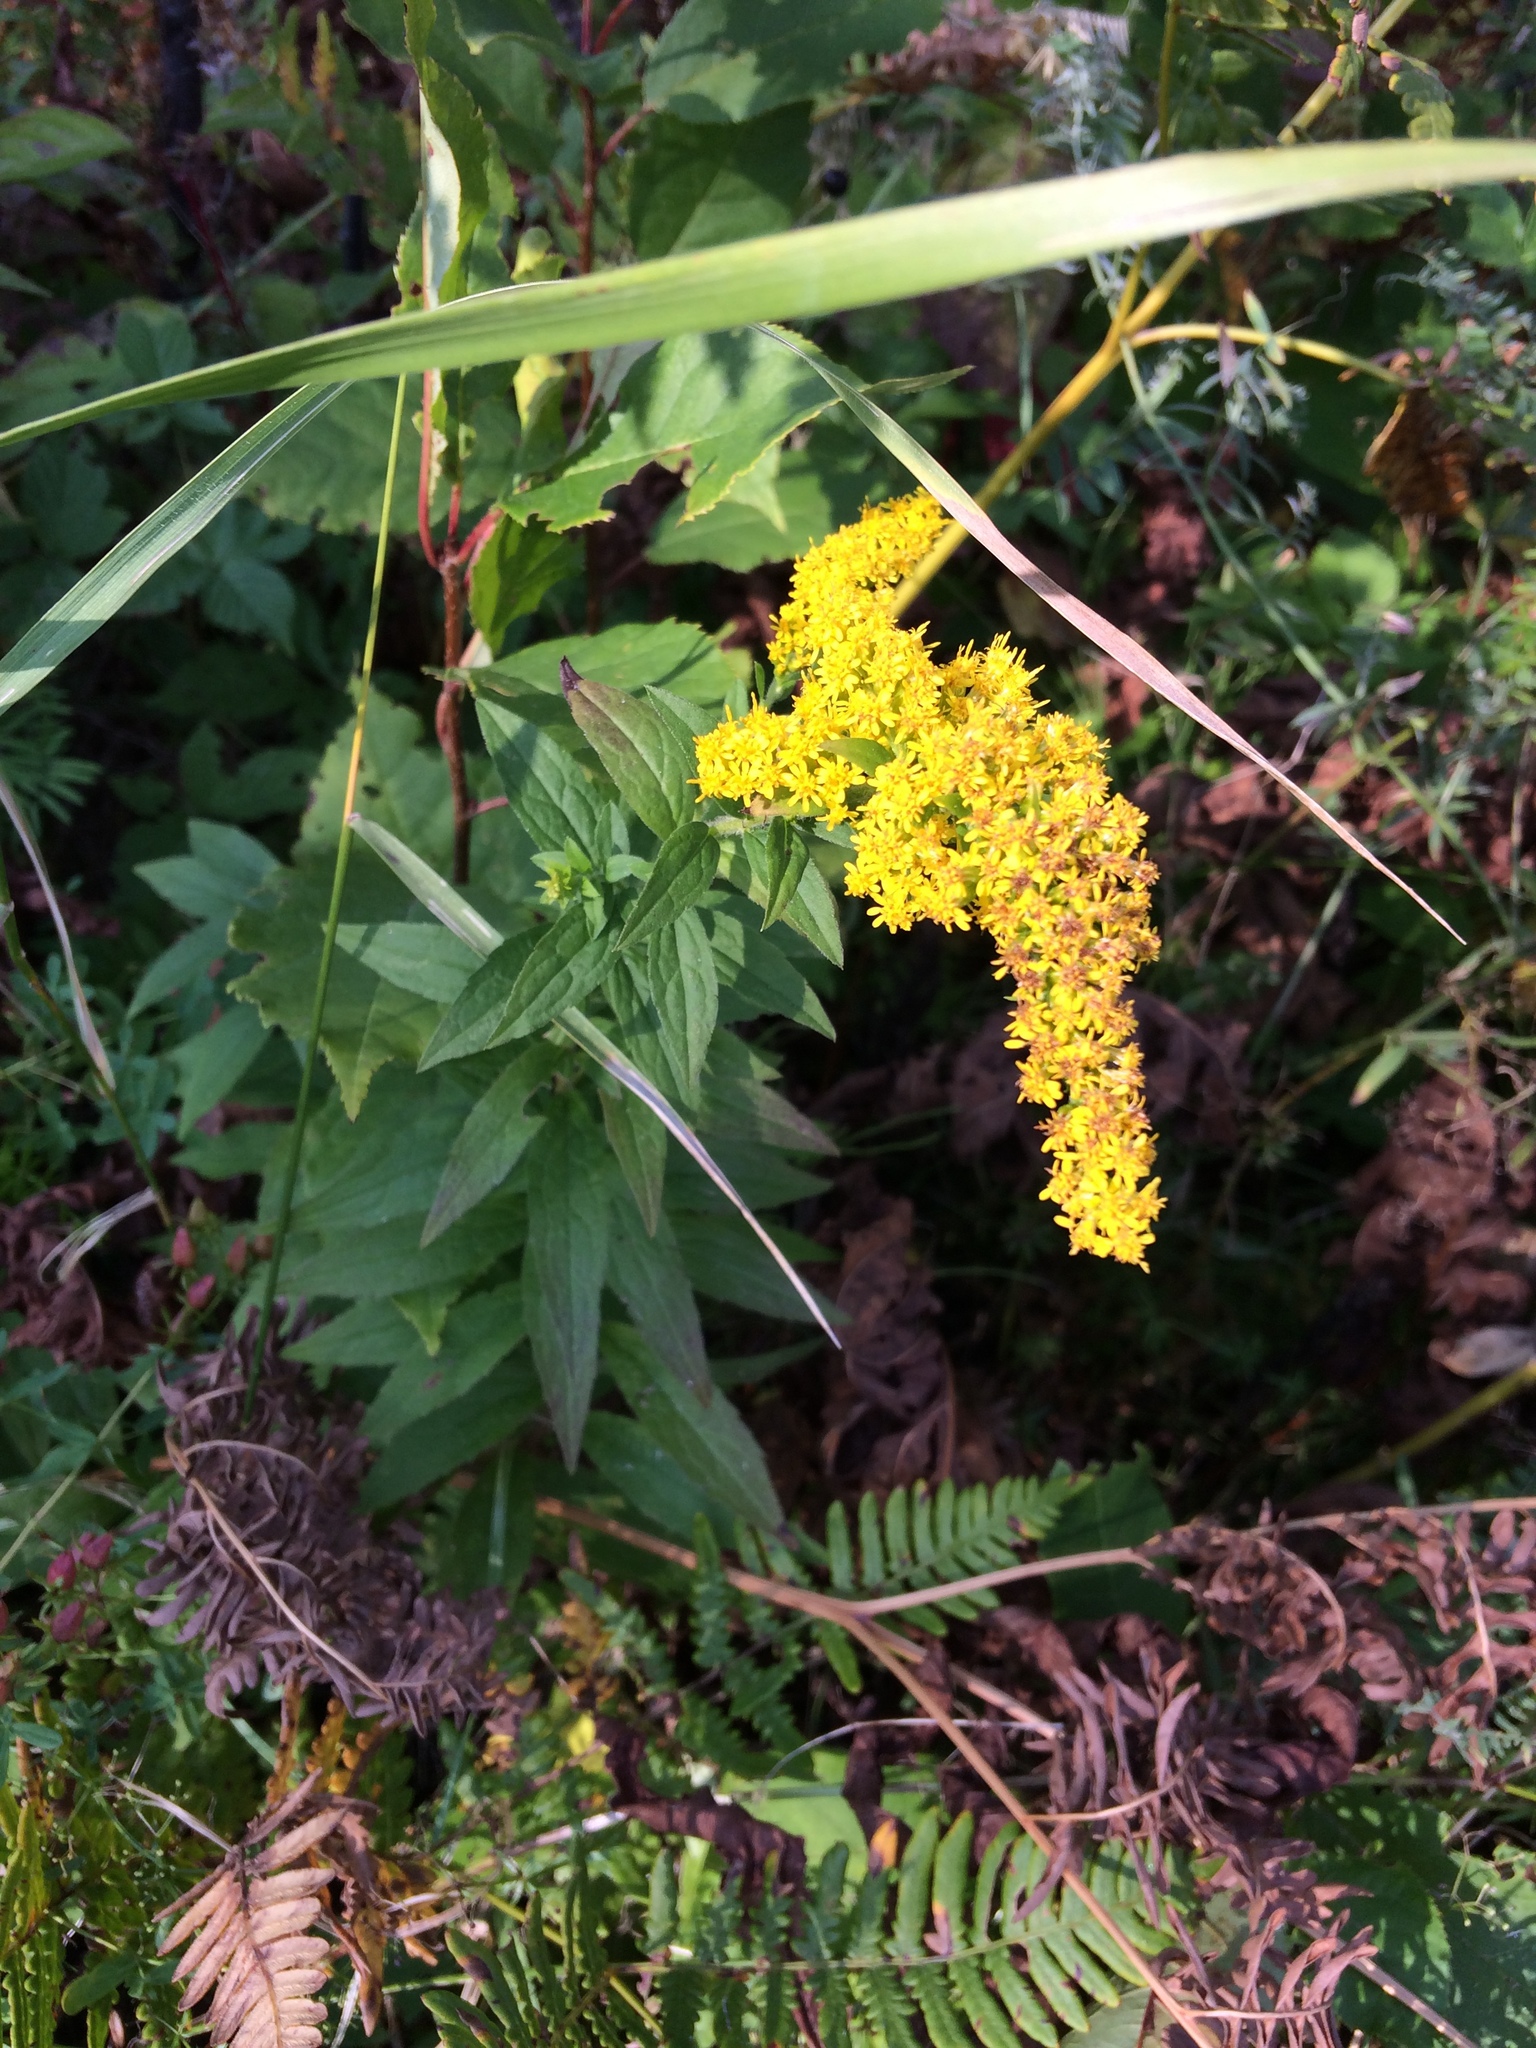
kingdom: Plantae
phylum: Tracheophyta
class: Magnoliopsida
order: Asterales
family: Asteraceae
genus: Solidago
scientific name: Solidago rugosa
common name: Rough-stemmed goldenrod
